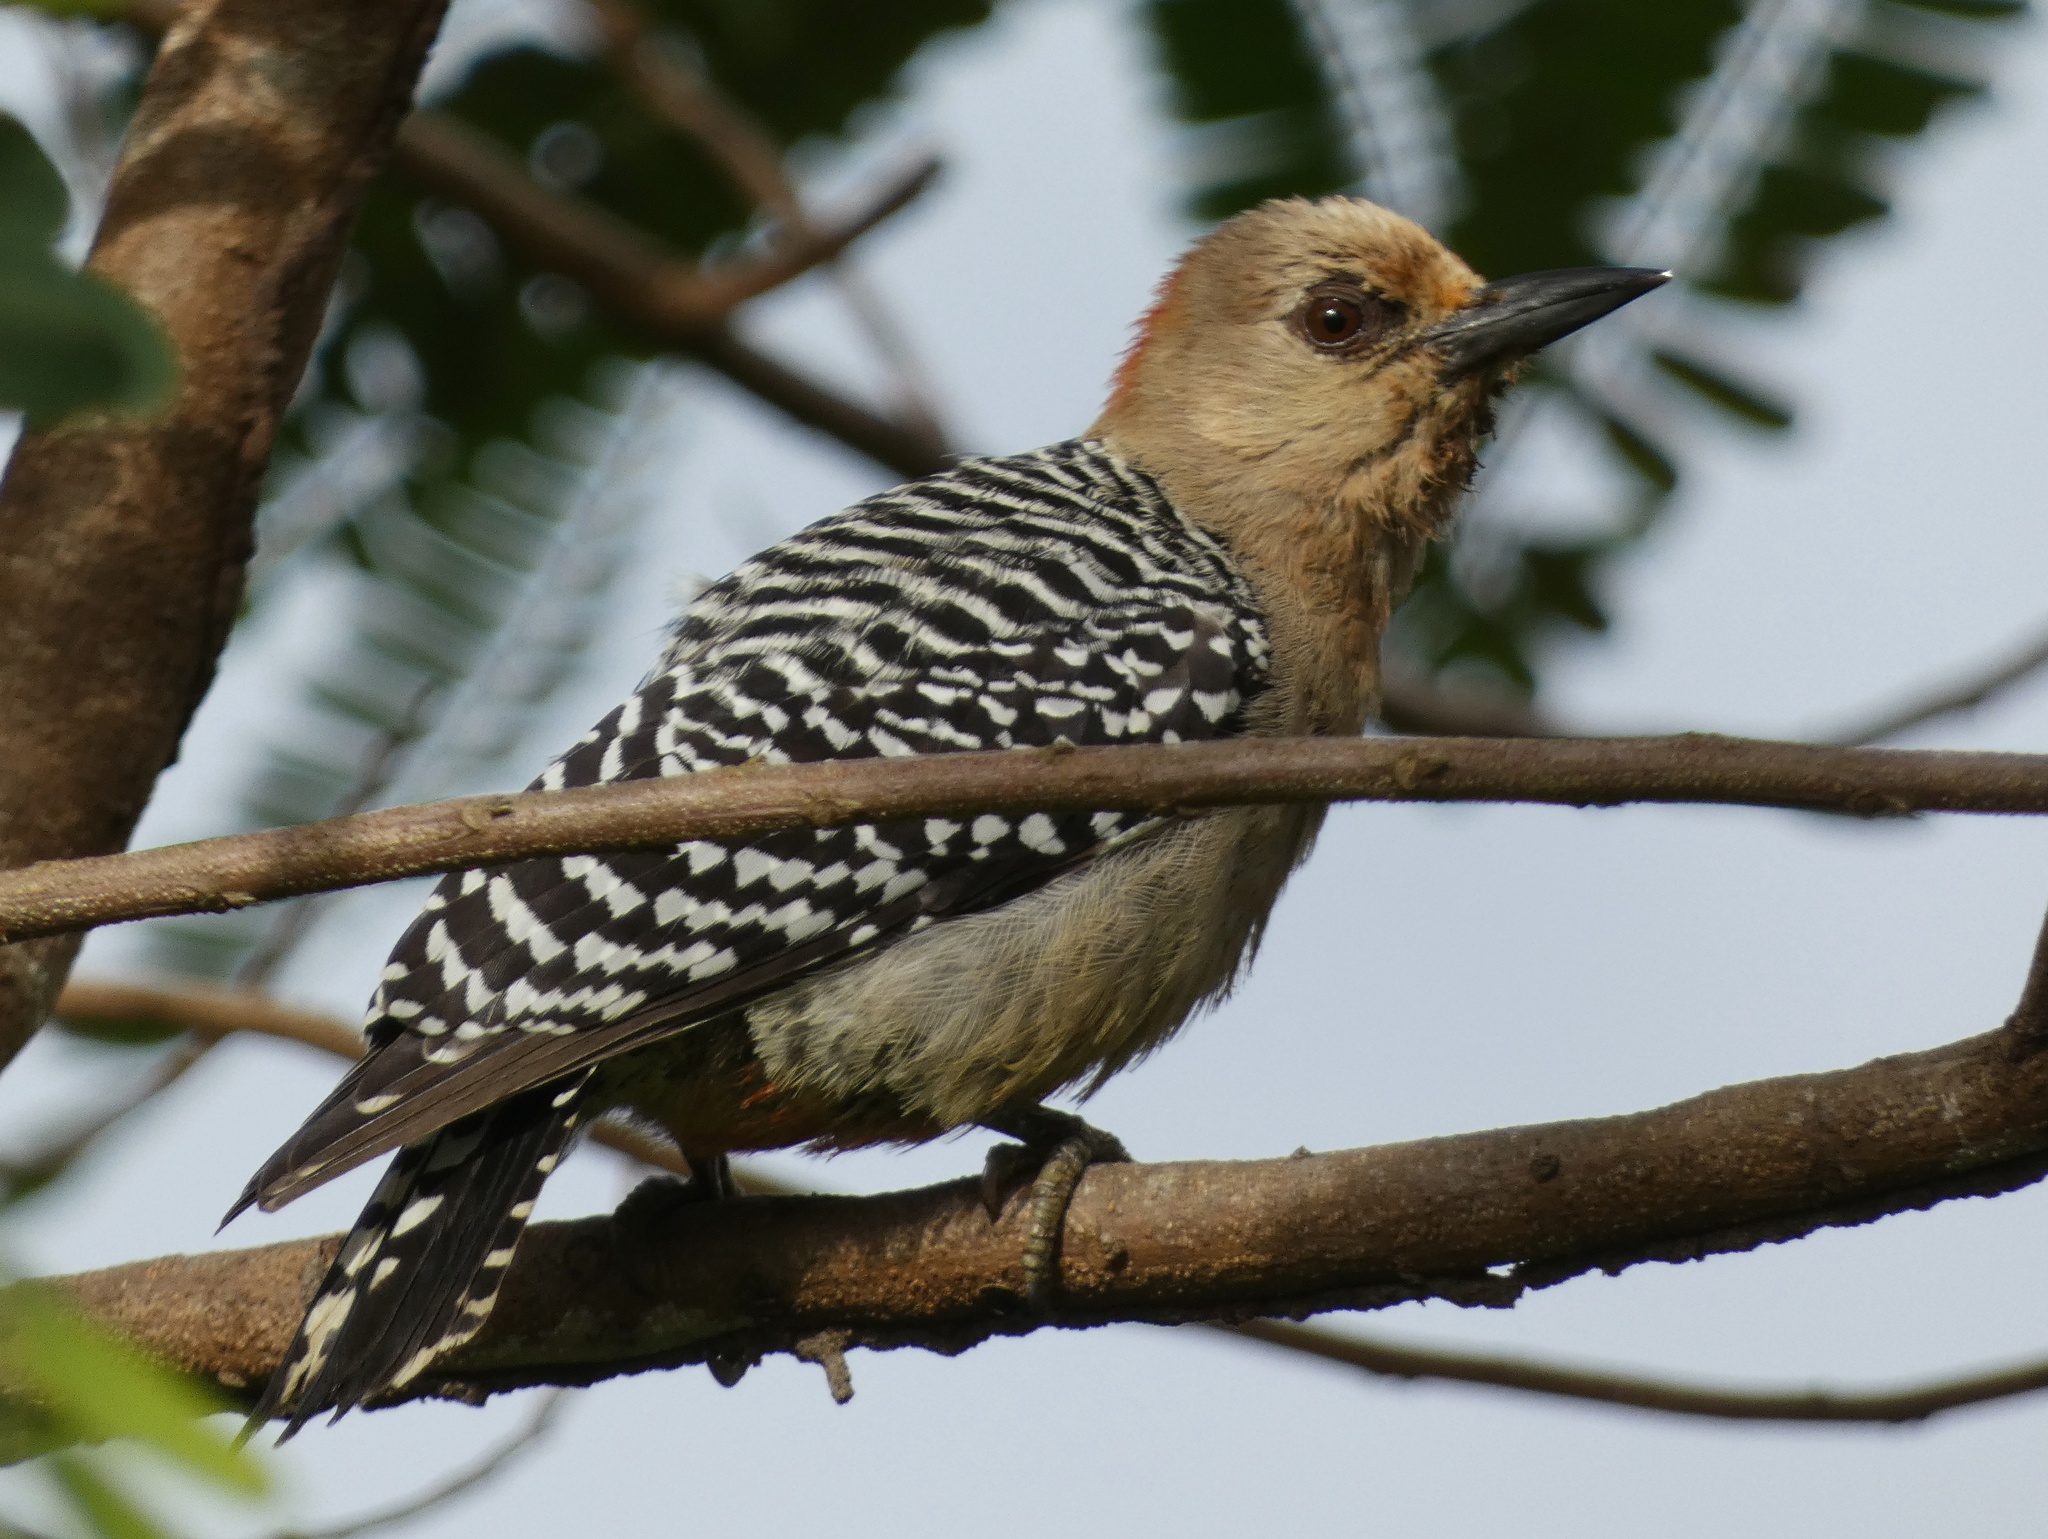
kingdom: Animalia
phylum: Chordata
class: Aves
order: Piciformes
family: Picidae
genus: Melanerpes
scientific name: Melanerpes rubricapillus
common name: Red-crowned woodpecker
